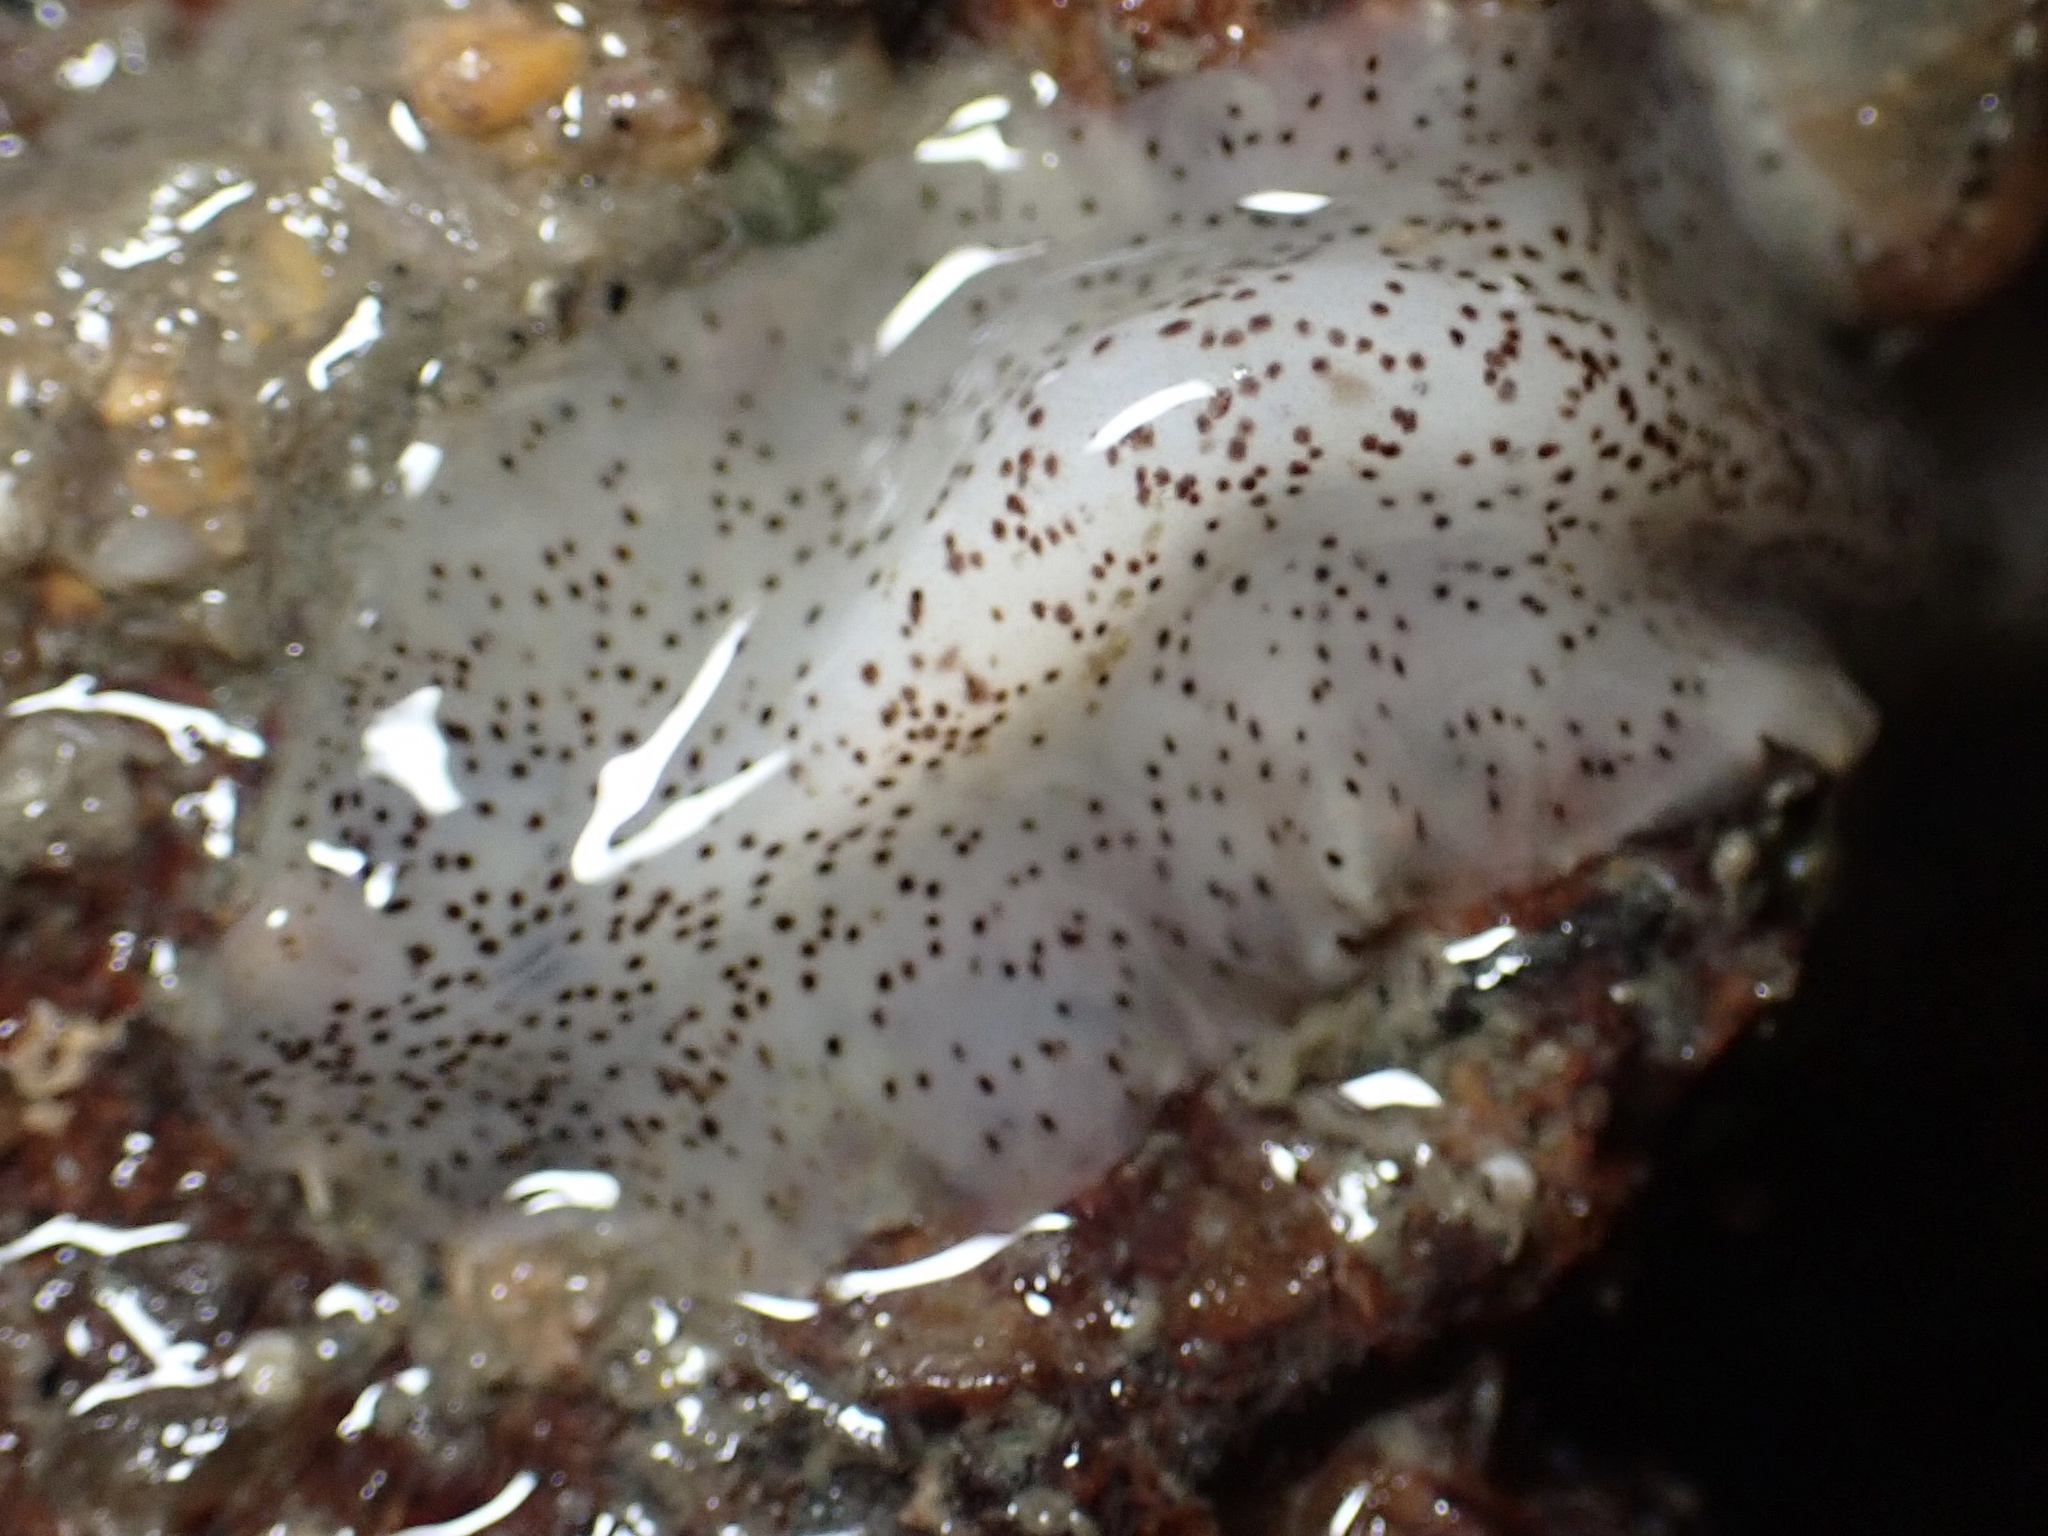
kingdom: Animalia
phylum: Platyhelminthes
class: Turbellaria
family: Prosthiostomidae
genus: Enchiridium
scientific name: Enchiridium punctatum
